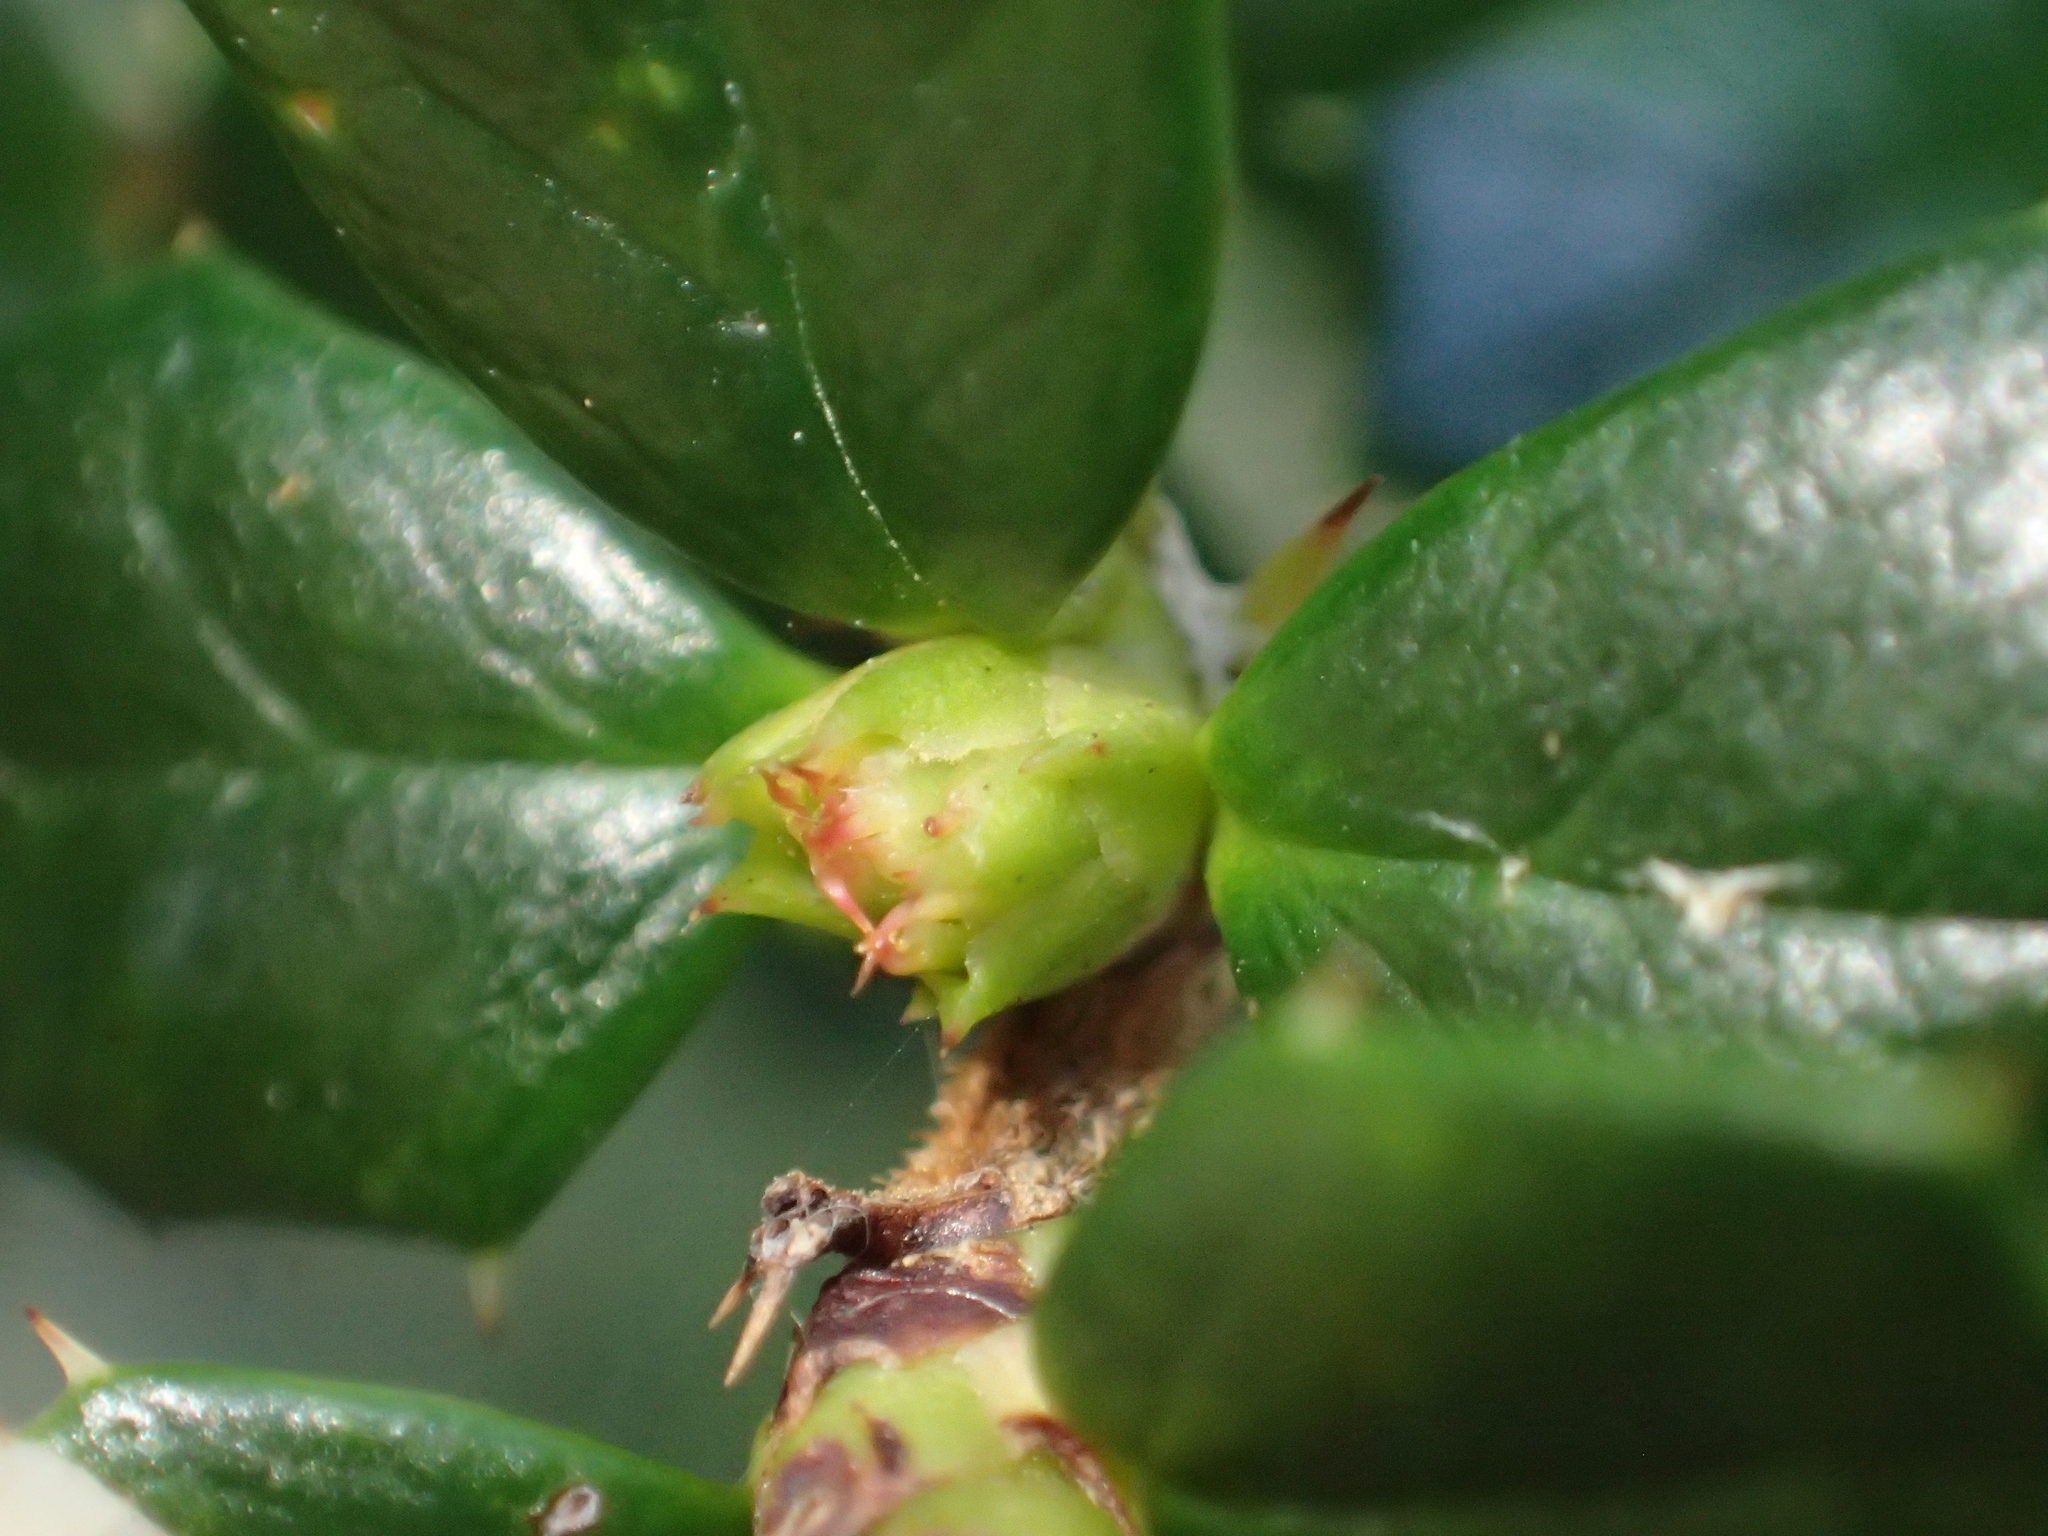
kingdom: Plantae
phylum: Tracheophyta
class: Magnoliopsida
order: Ranunculales
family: Berberidaceae
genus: Berberis
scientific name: Berberis darwinii
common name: Darwin's barberry
